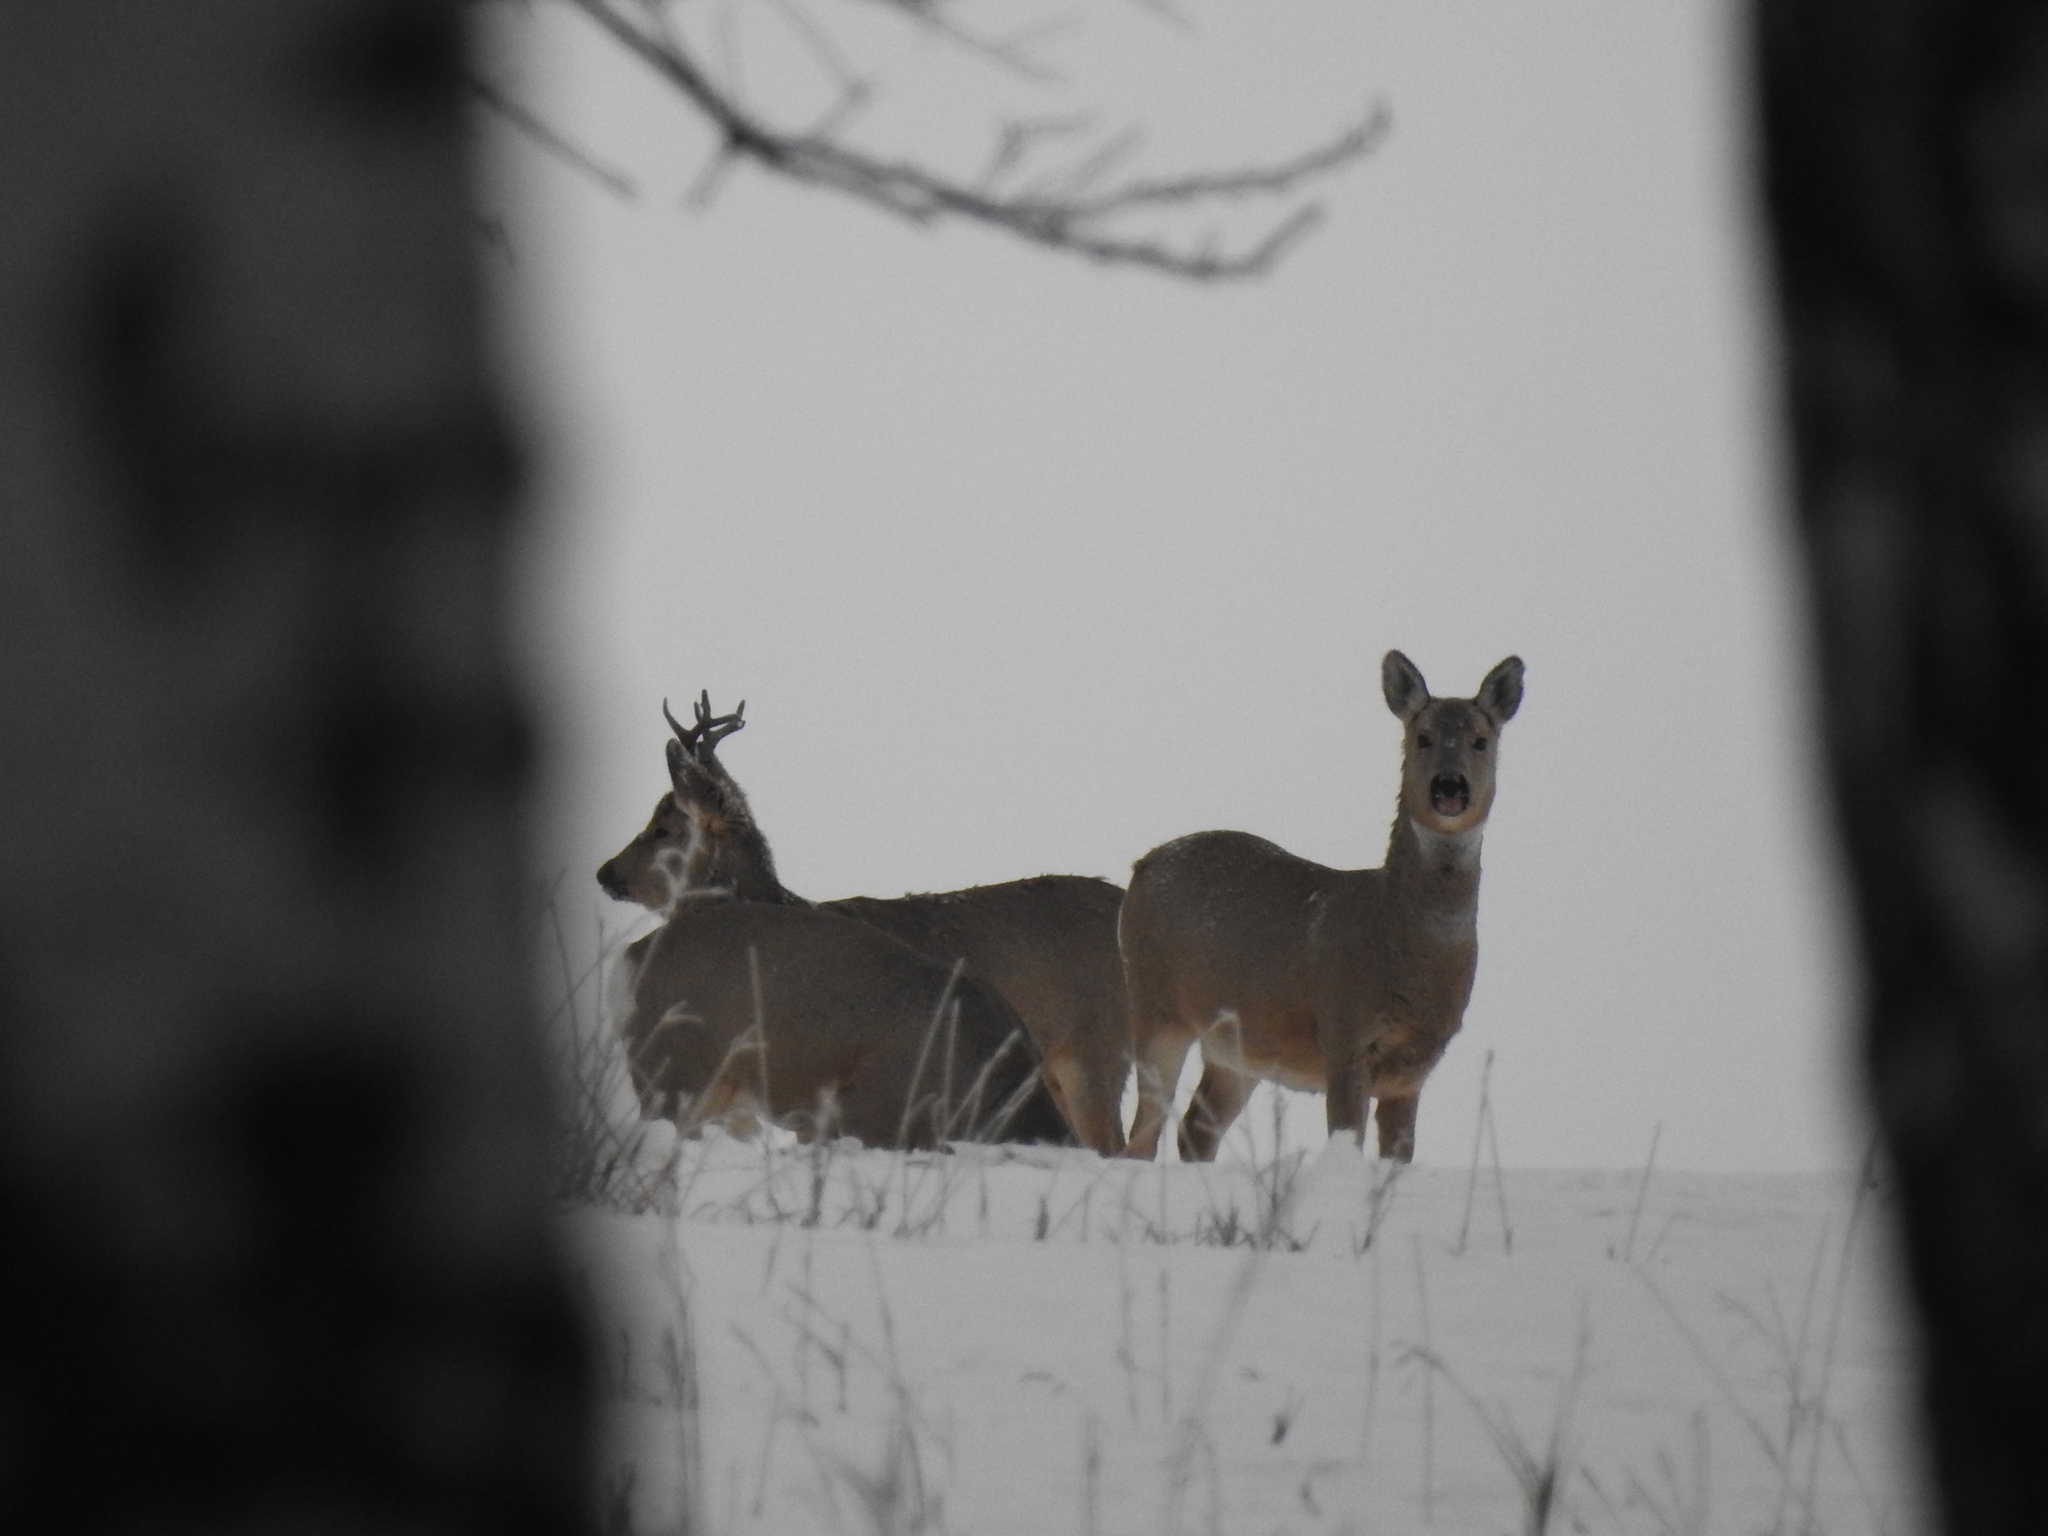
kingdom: Animalia
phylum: Chordata
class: Mammalia
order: Artiodactyla
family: Cervidae
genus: Capreolus
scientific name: Capreolus pygargus
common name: Siberian roe
